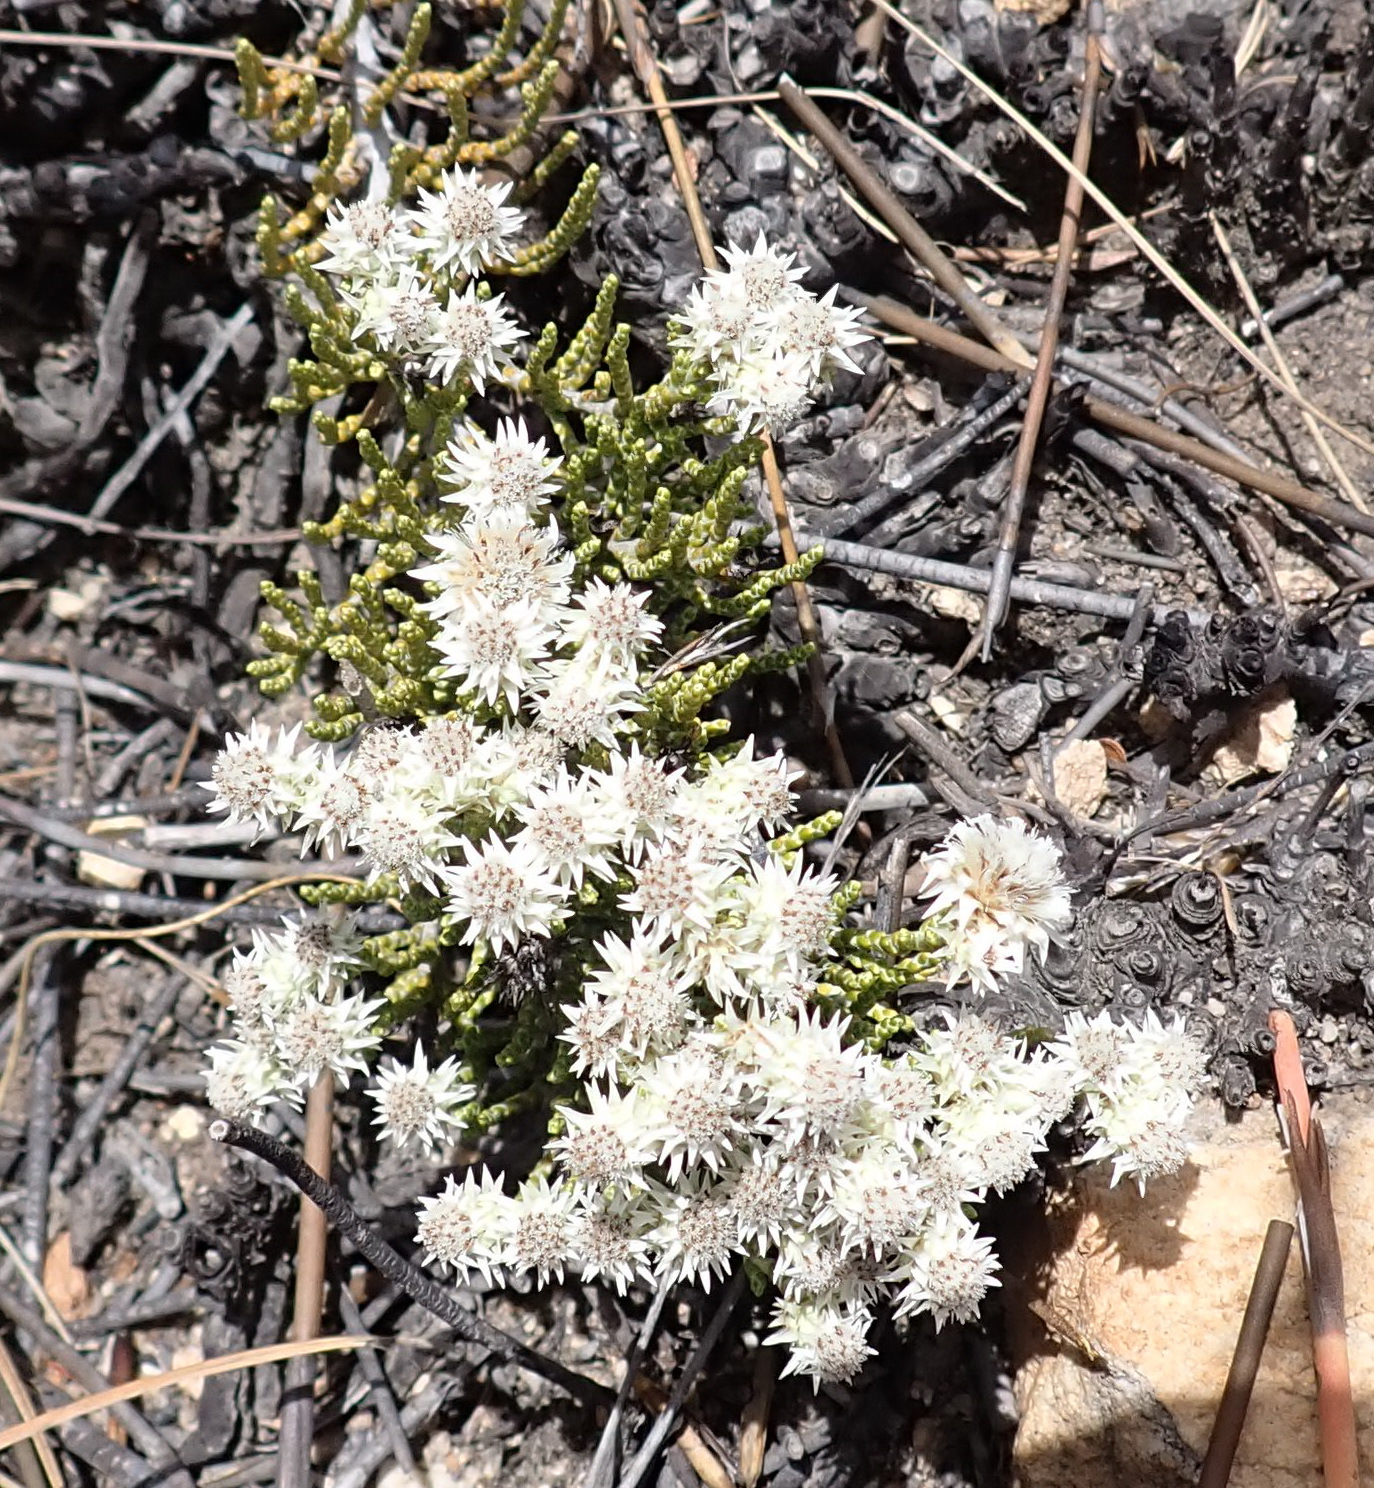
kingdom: Plantae
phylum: Tracheophyta
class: Magnoliopsida
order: Asterales
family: Asteraceae
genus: Dolichothrix
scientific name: Dolichothrix ericoides
